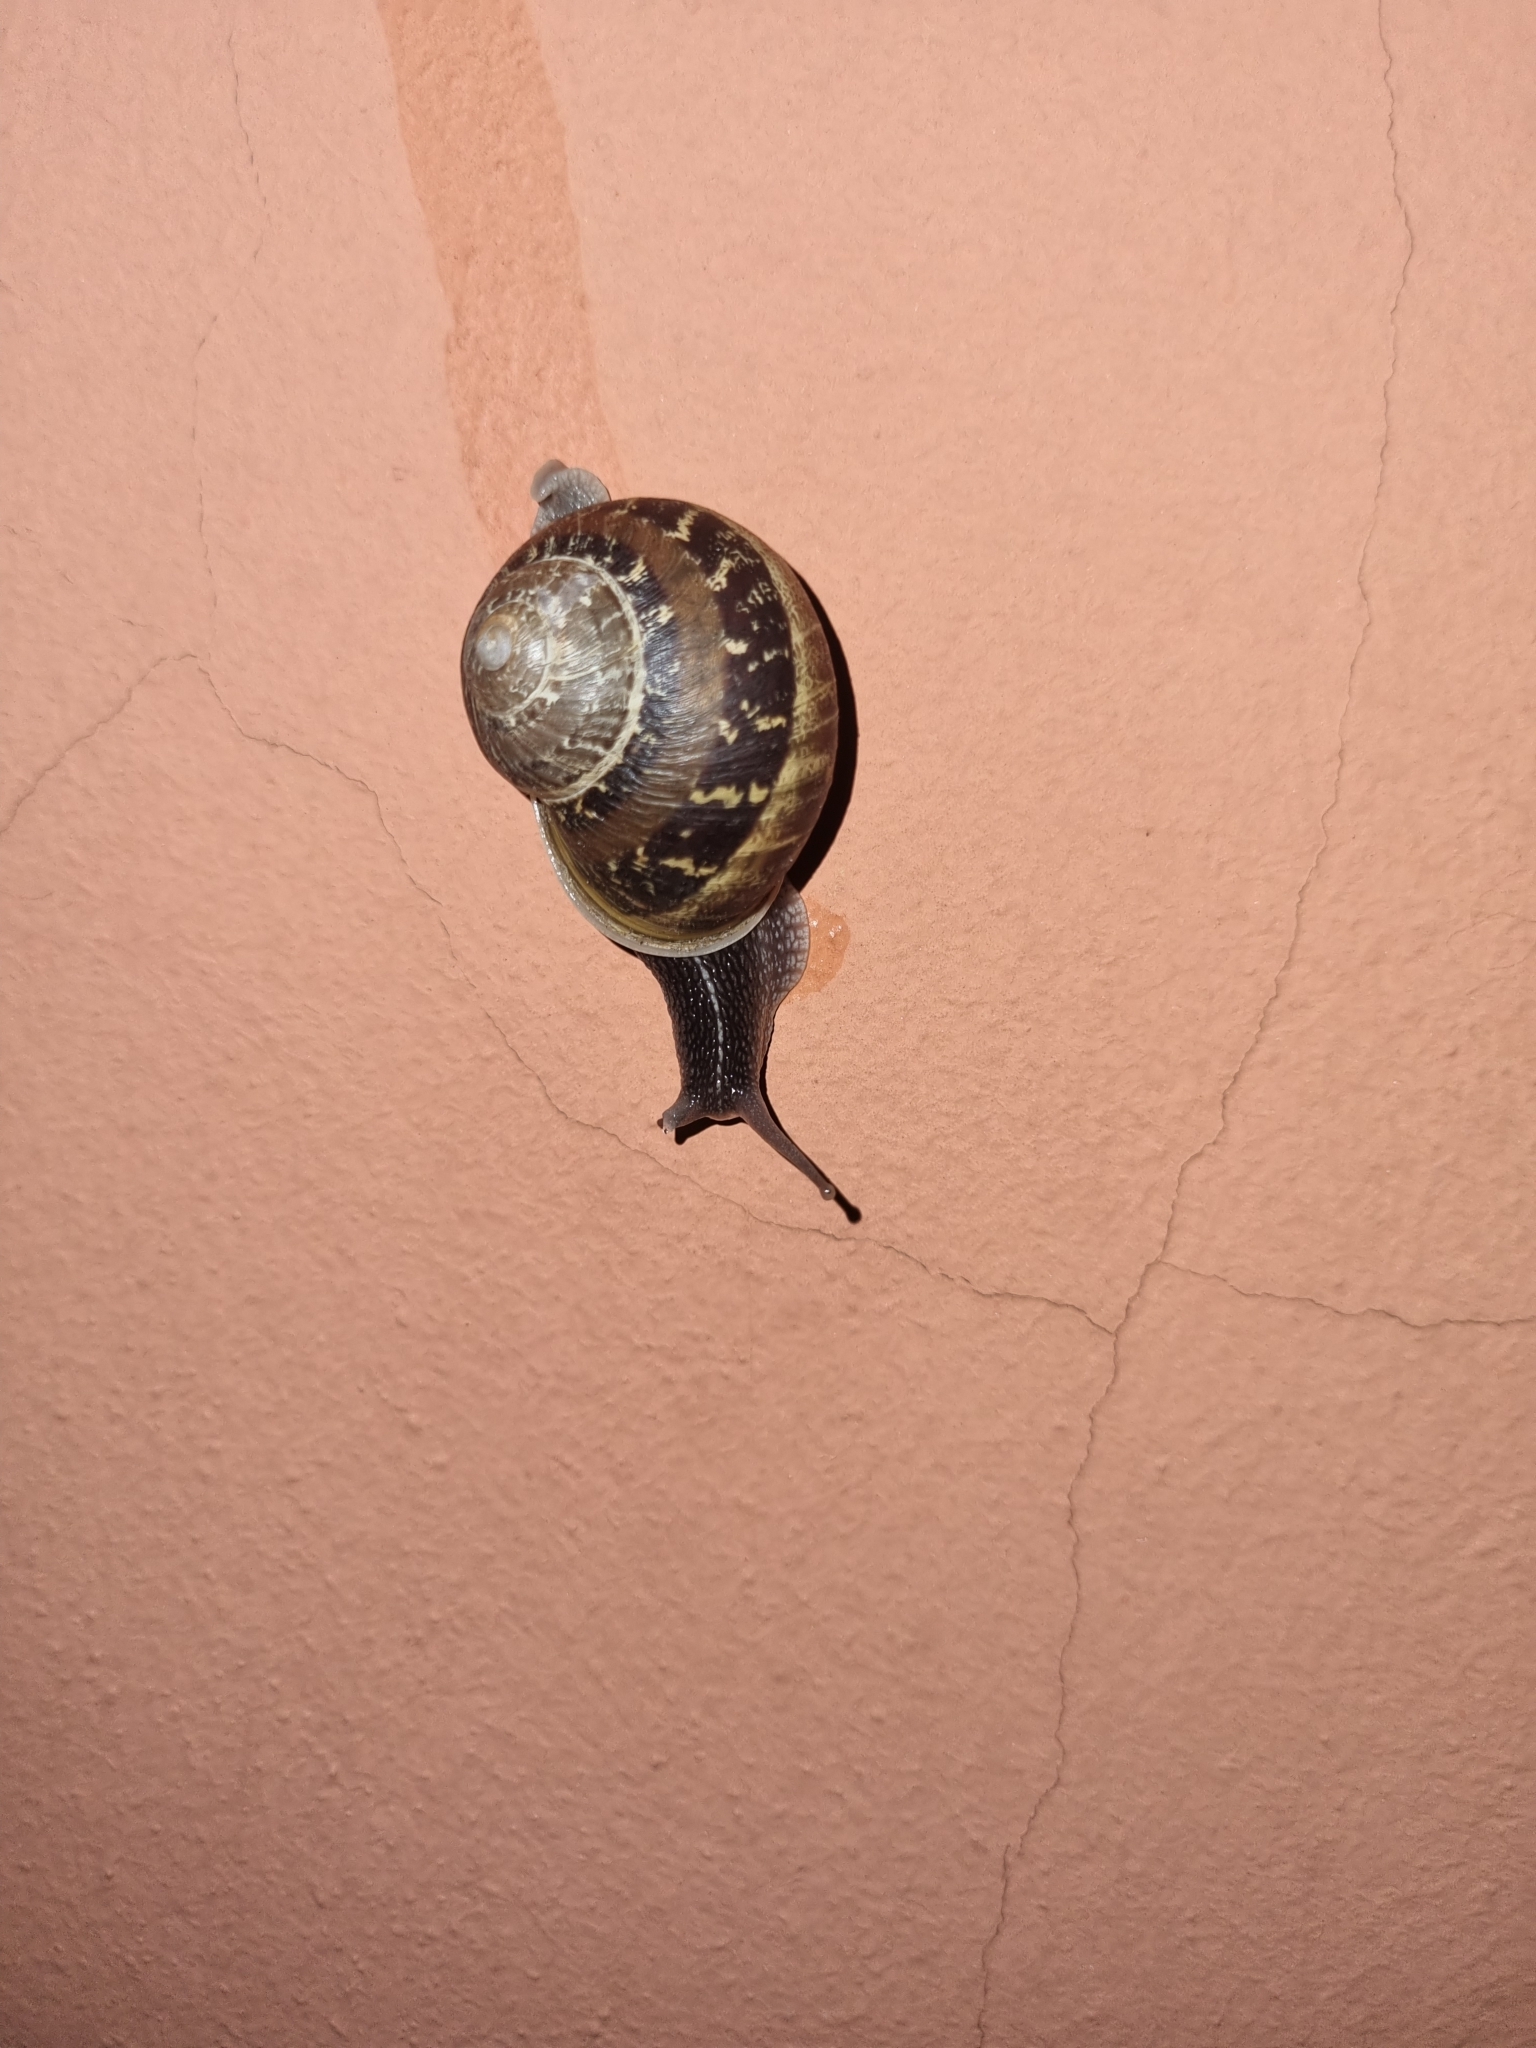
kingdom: Animalia
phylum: Mollusca
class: Gastropoda
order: Stylommatophora
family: Helicidae
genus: Cornu
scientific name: Cornu aspersum
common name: Brown garden snail
